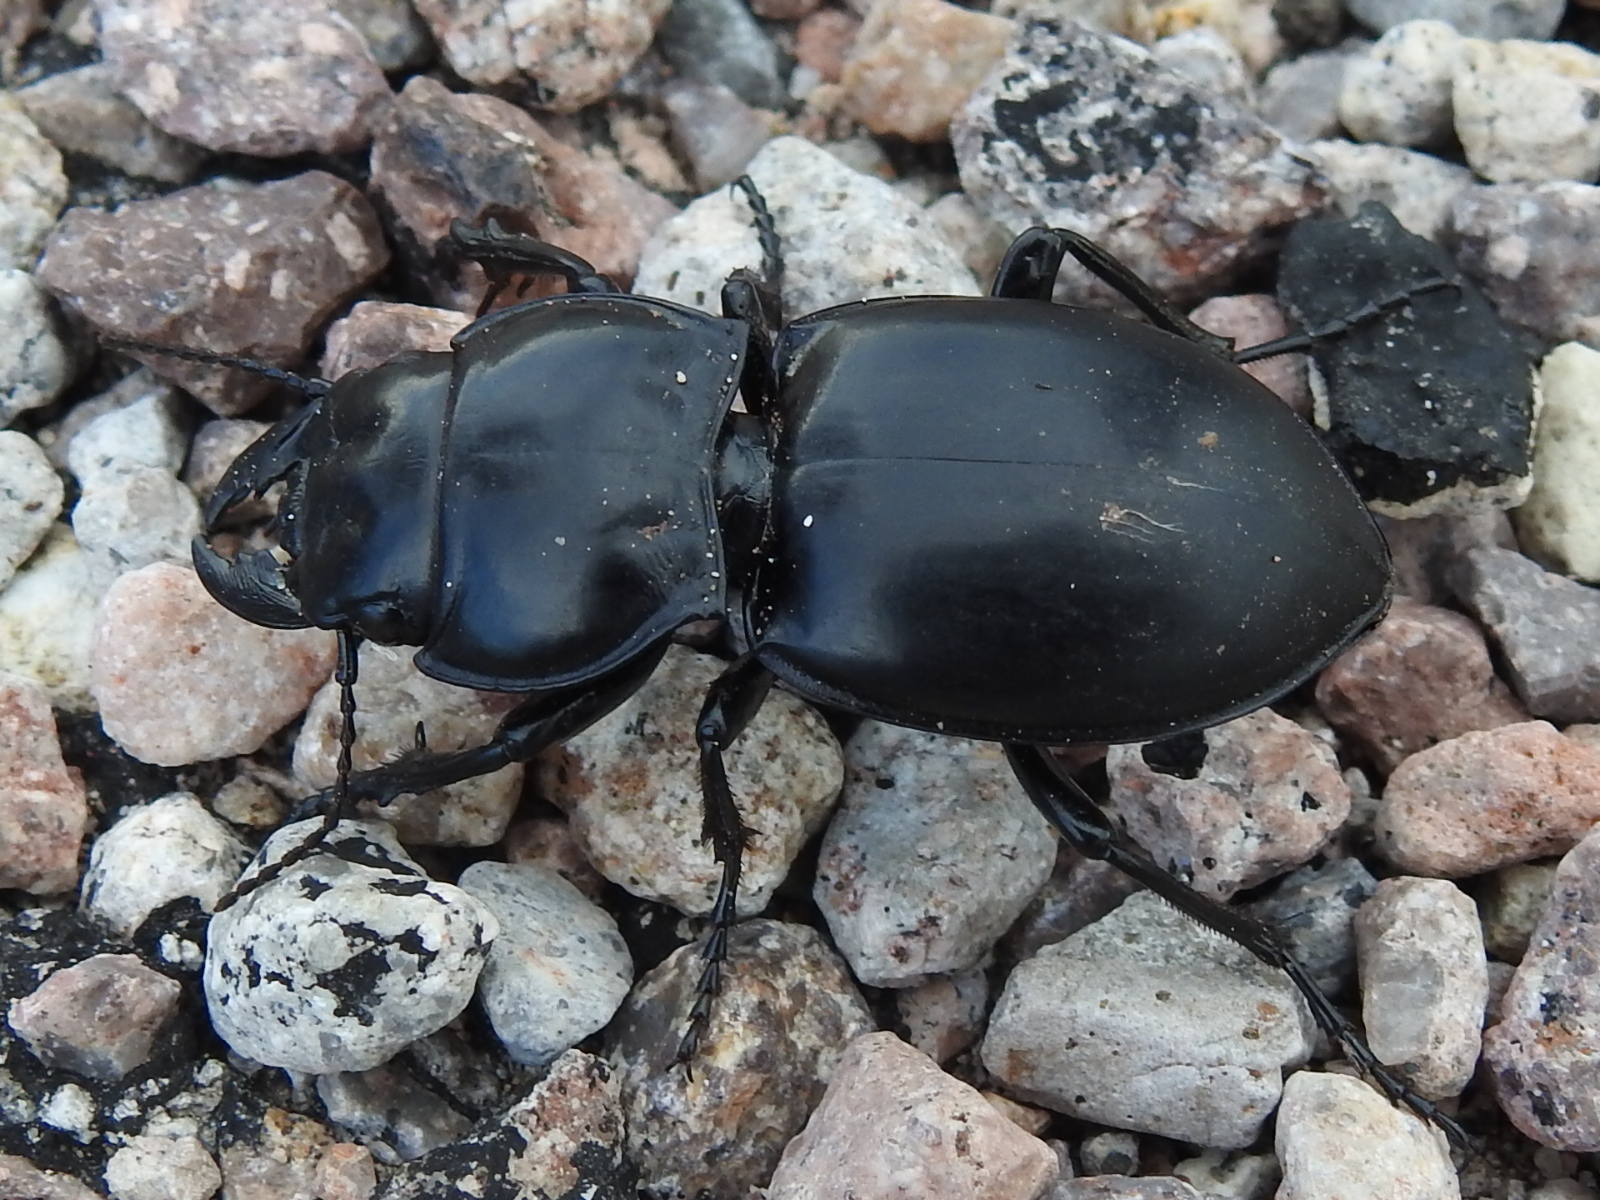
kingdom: Animalia
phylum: Arthropoda
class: Insecta
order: Coleoptera
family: Carabidae
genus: Pasimachus
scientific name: Pasimachus californicus
